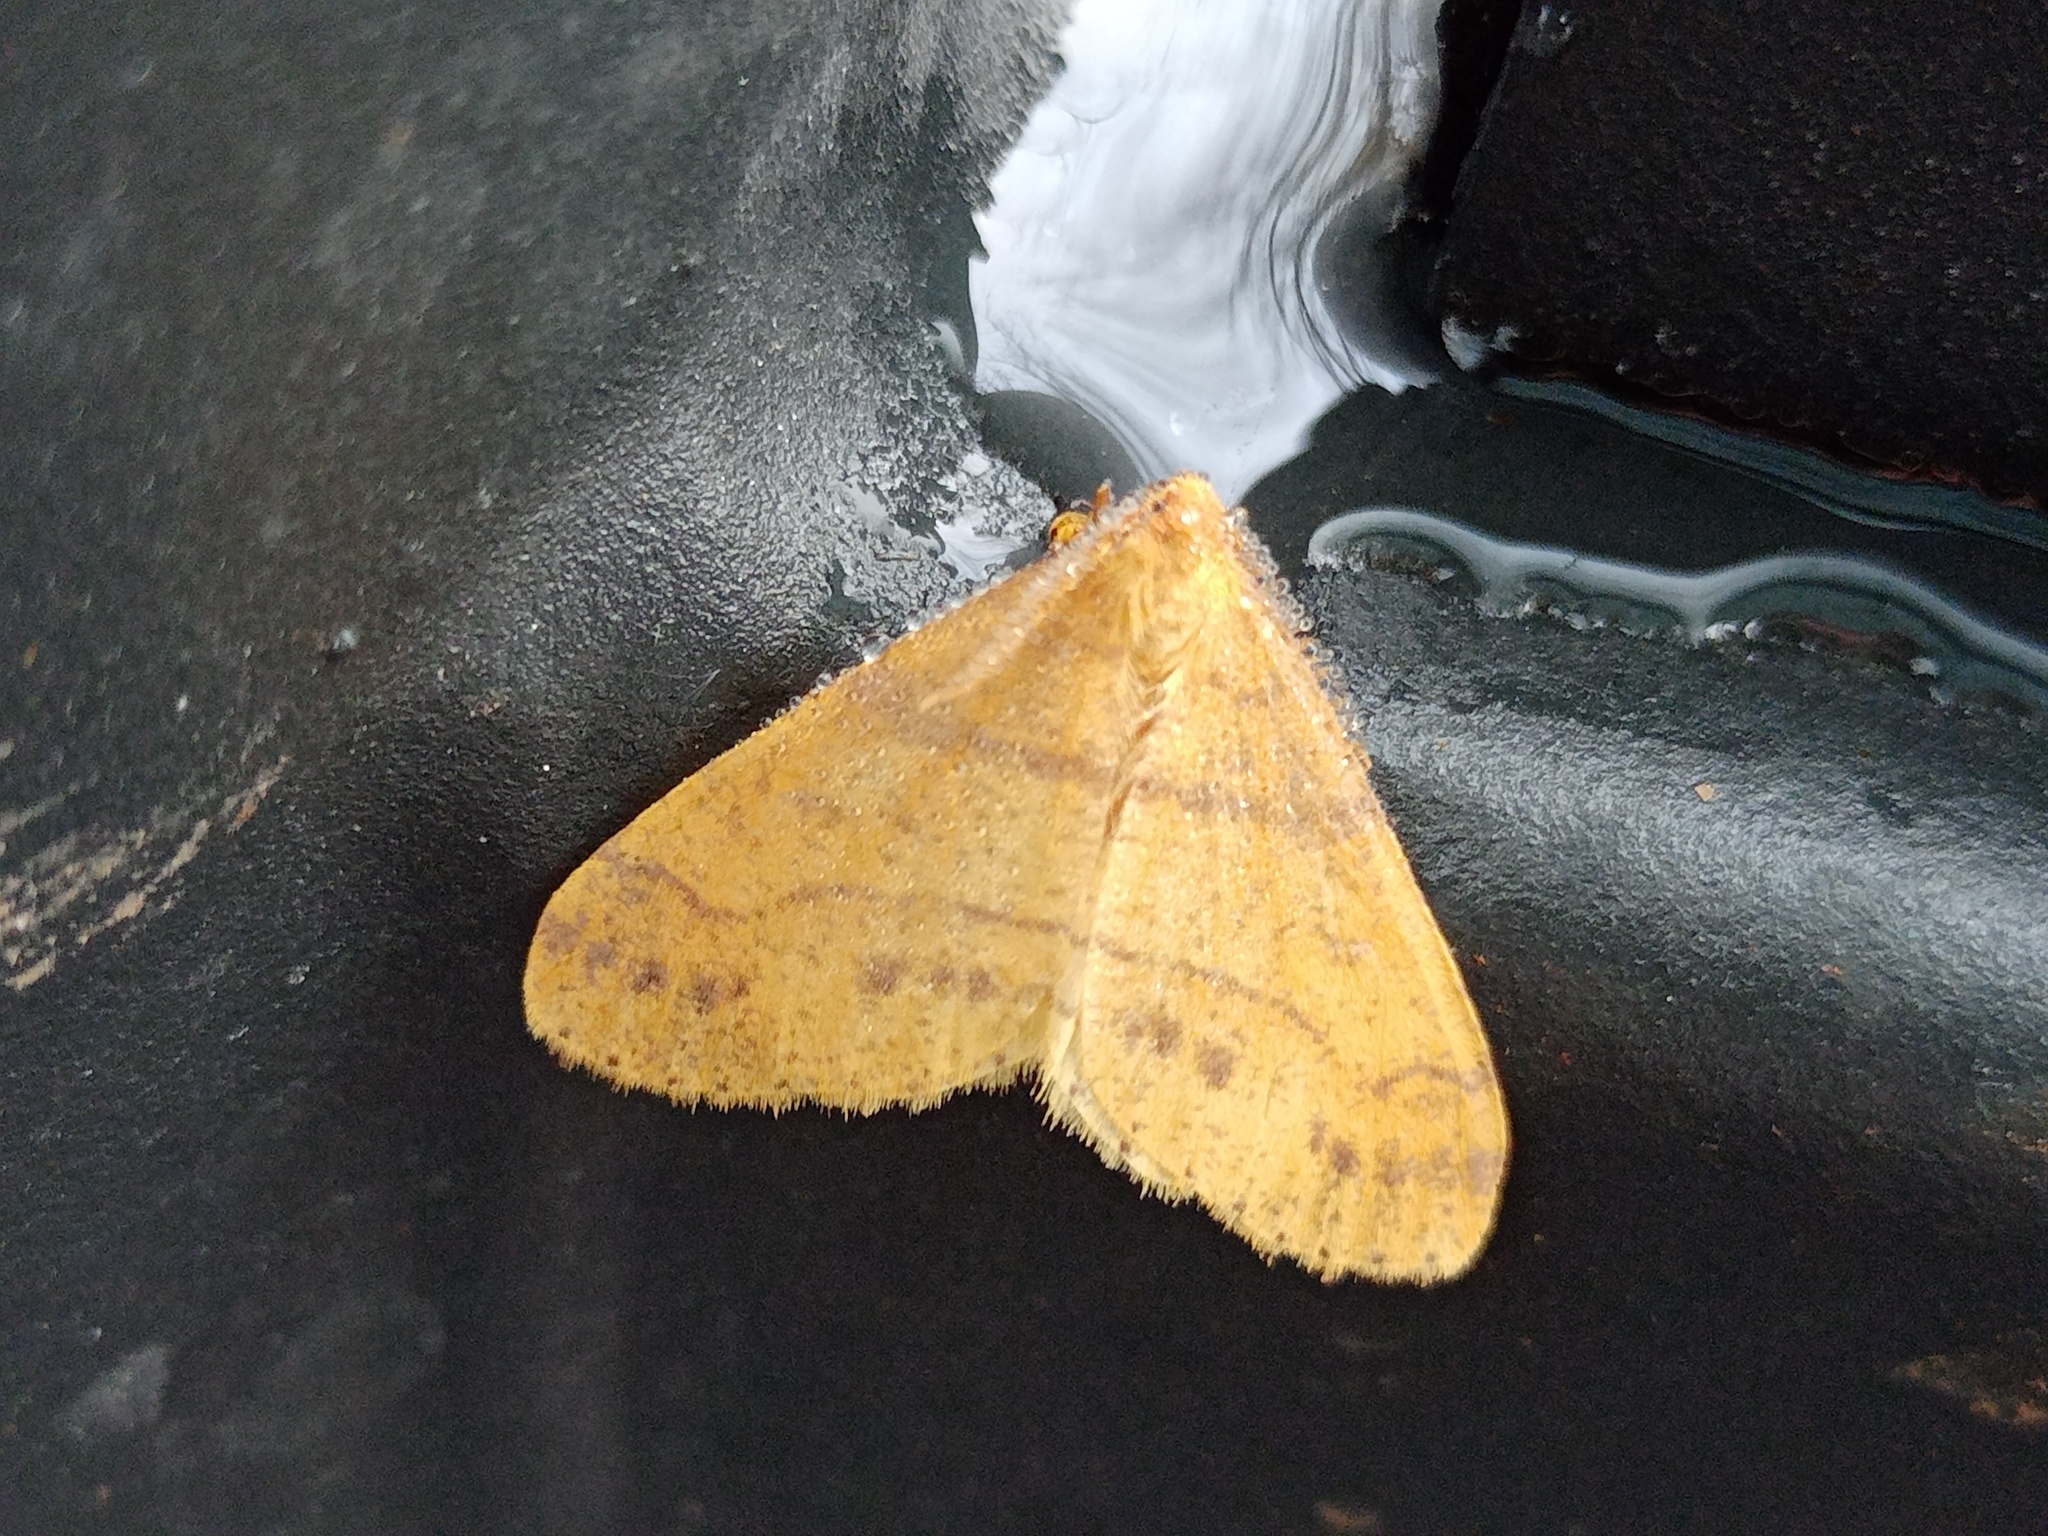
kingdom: Animalia
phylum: Arthropoda
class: Insecta
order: Lepidoptera
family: Geometridae
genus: Agriopis
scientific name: Agriopis aurantiaria
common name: Scarce umber
